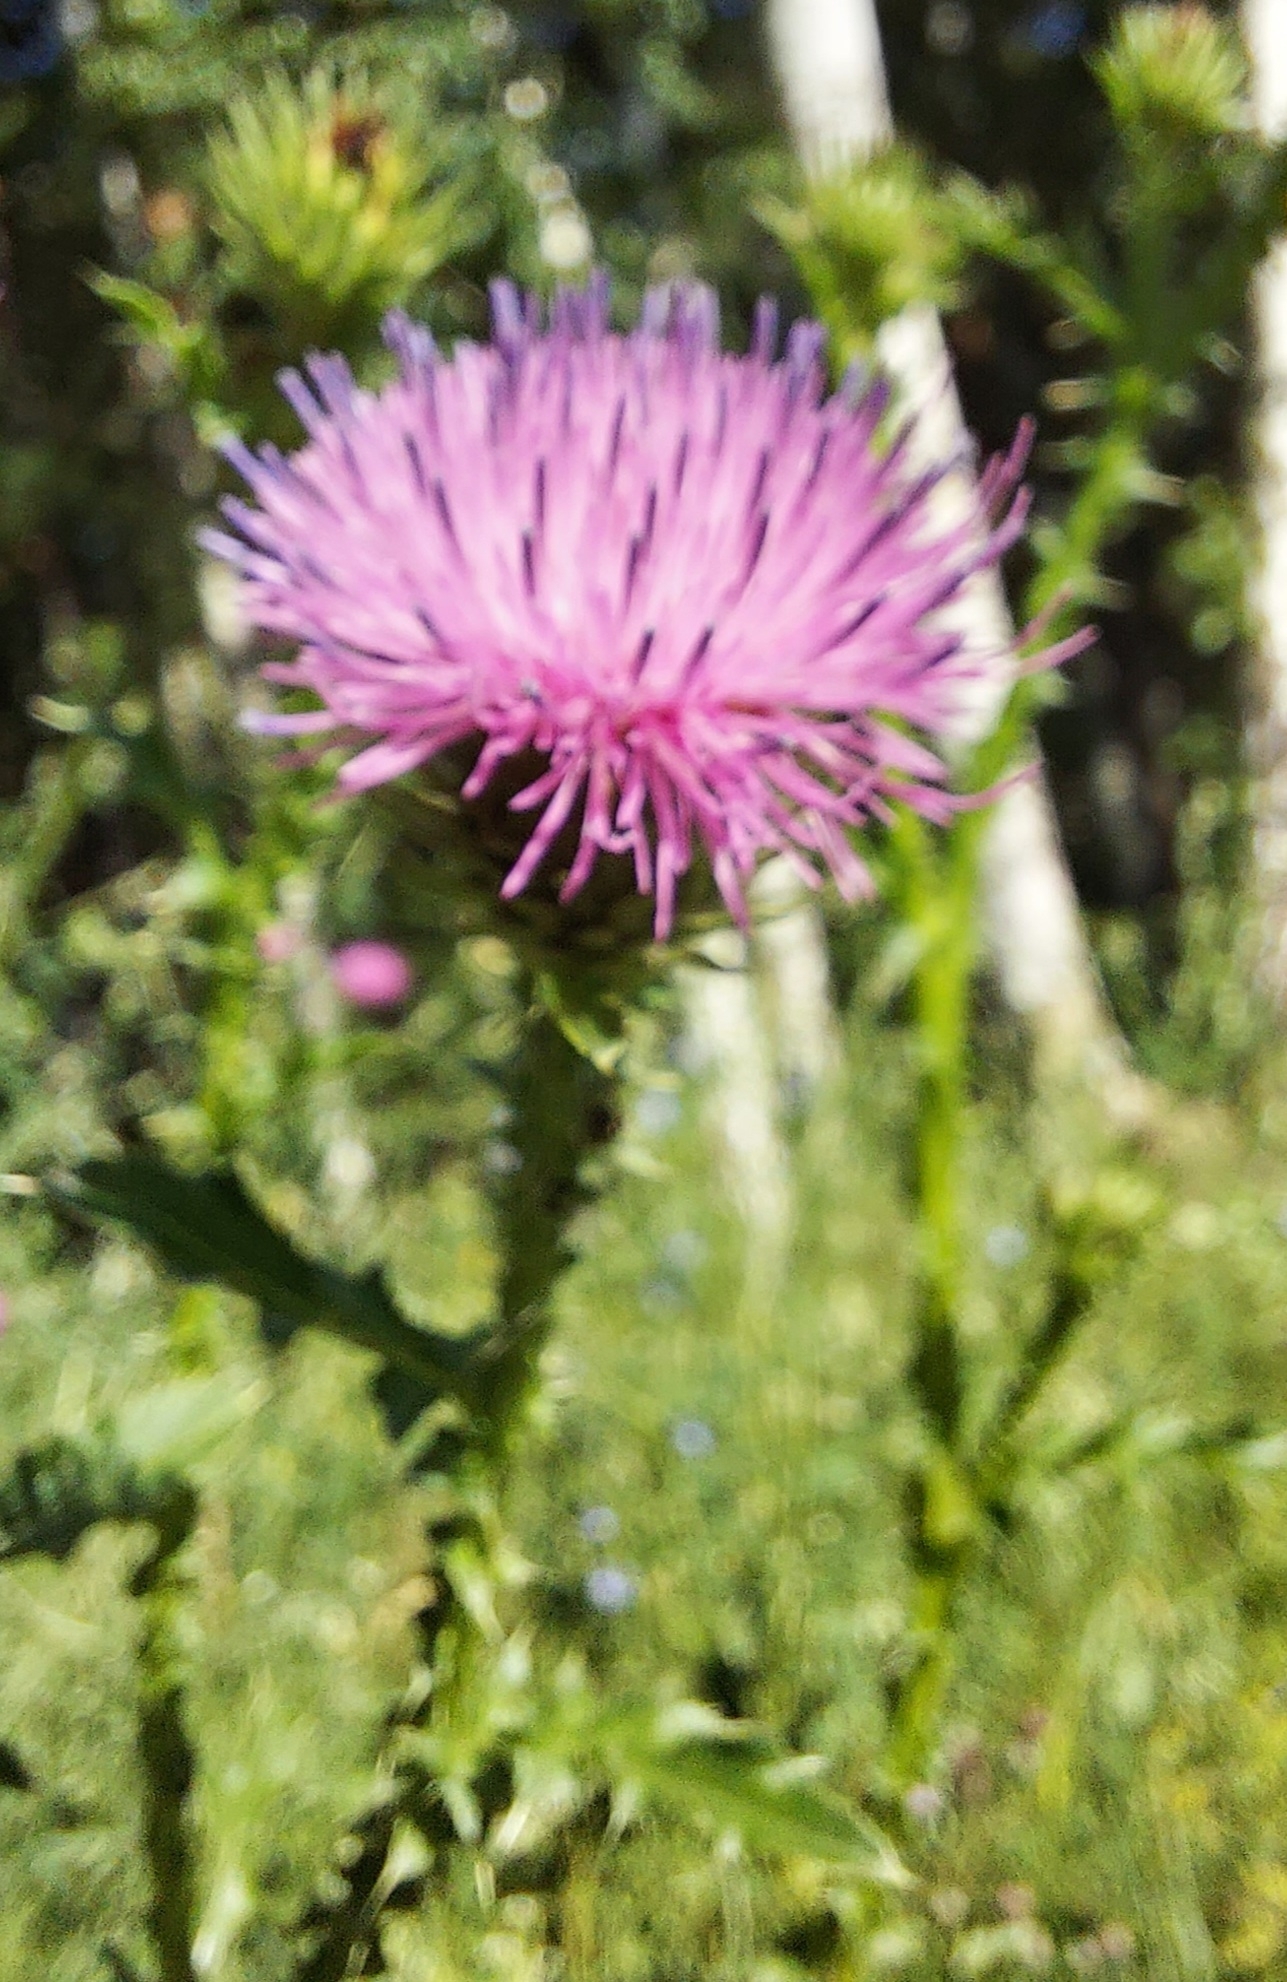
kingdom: Plantae
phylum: Tracheophyta
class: Magnoliopsida
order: Asterales
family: Asteraceae
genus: Carduus
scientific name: Carduus acanthoides
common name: Plumeless thistle
